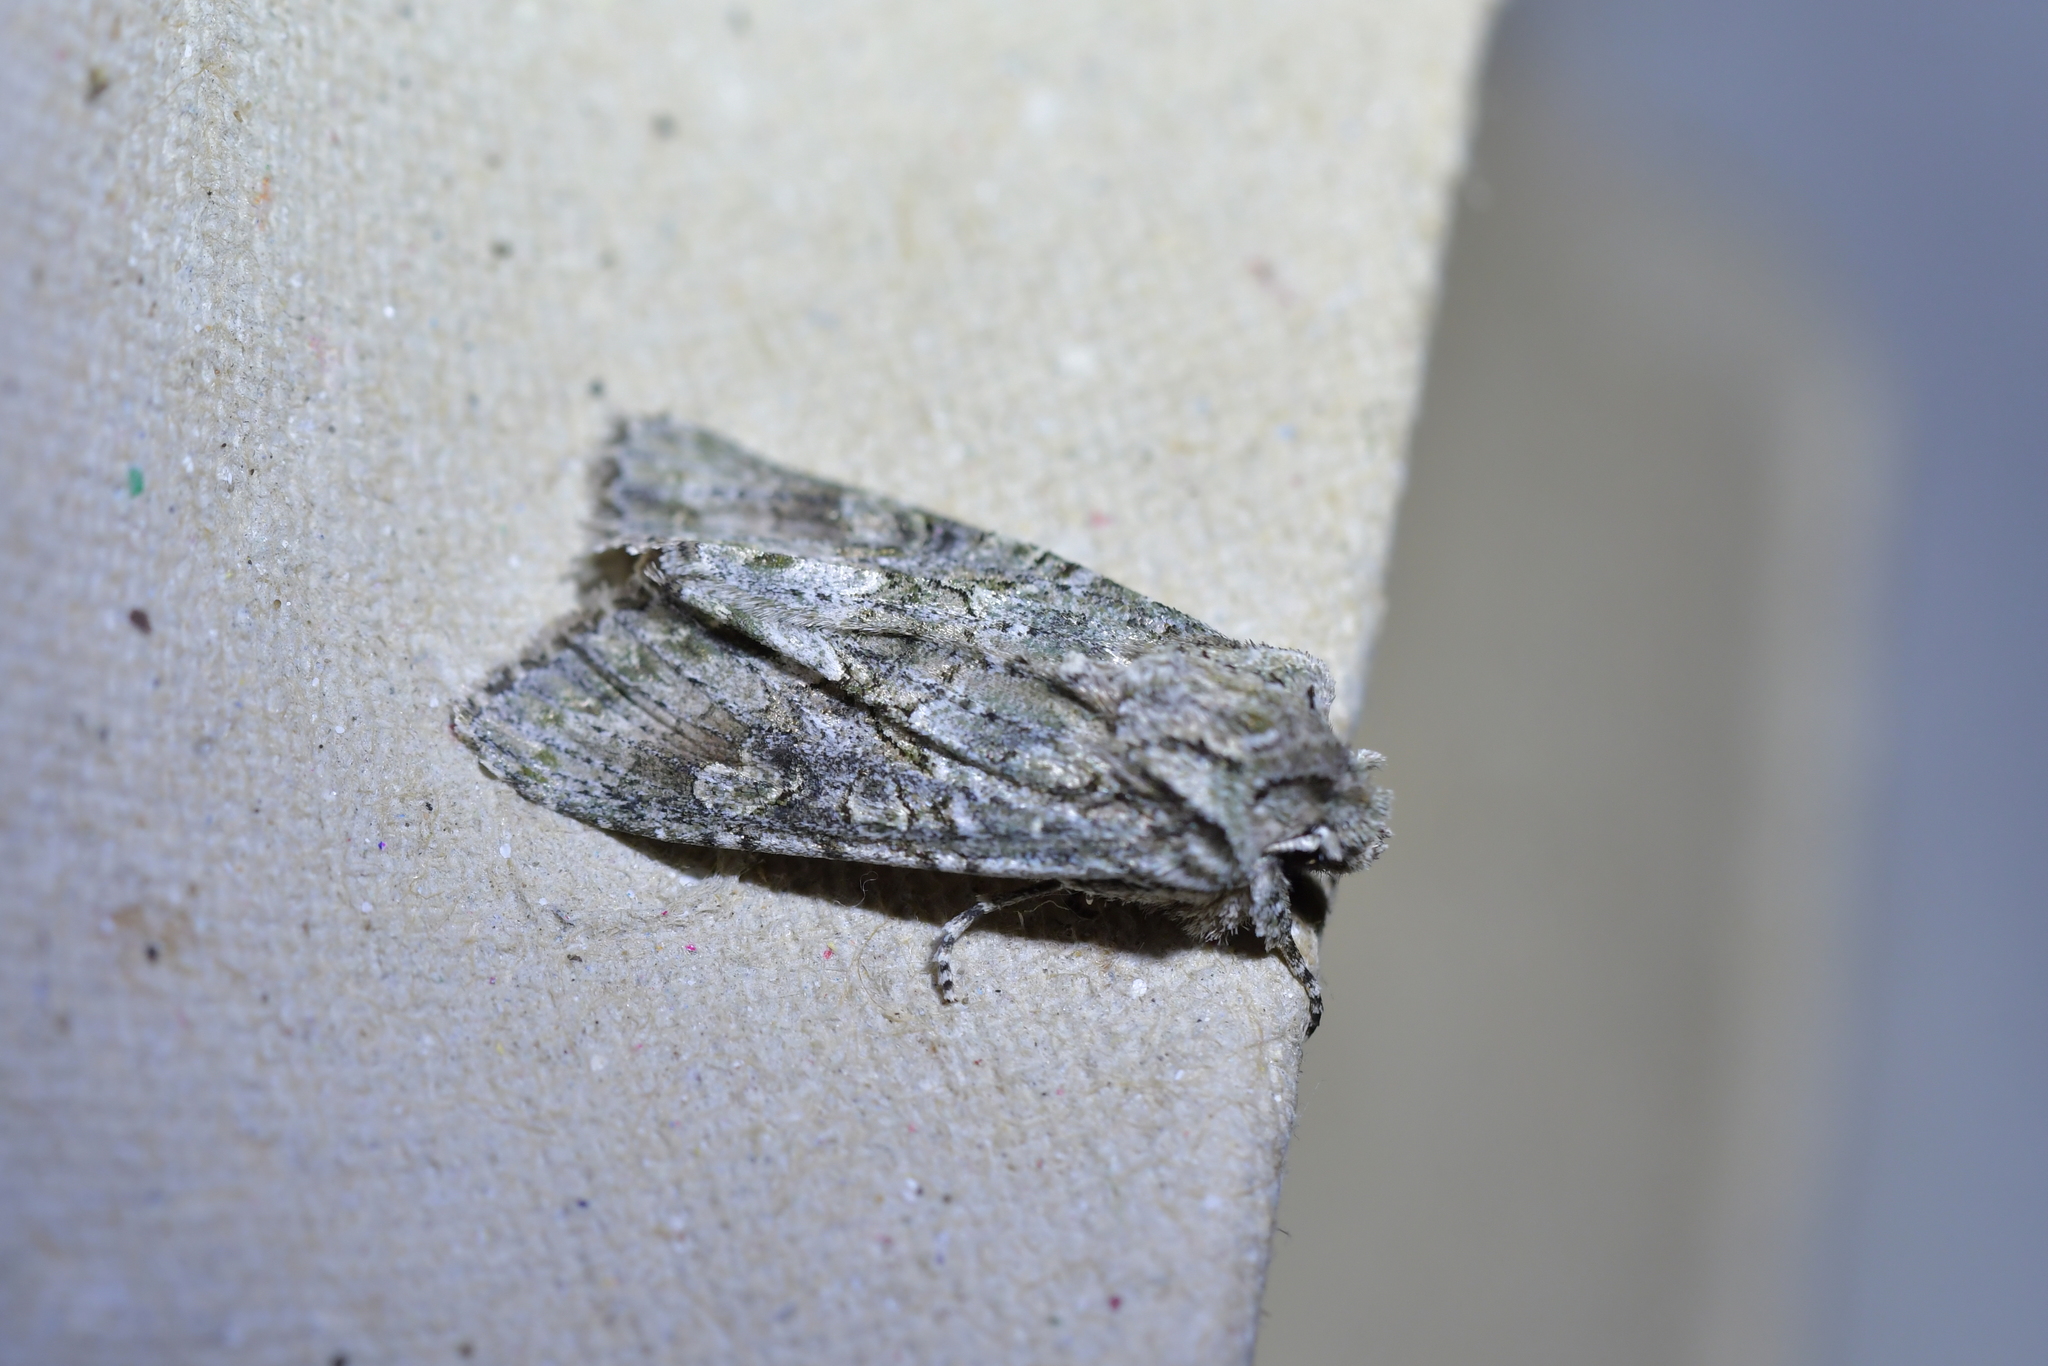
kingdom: Animalia
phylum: Arthropoda
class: Insecta
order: Lepidoptera
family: Noctuidae
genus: Ichneutica
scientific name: Ichneutica mutans
